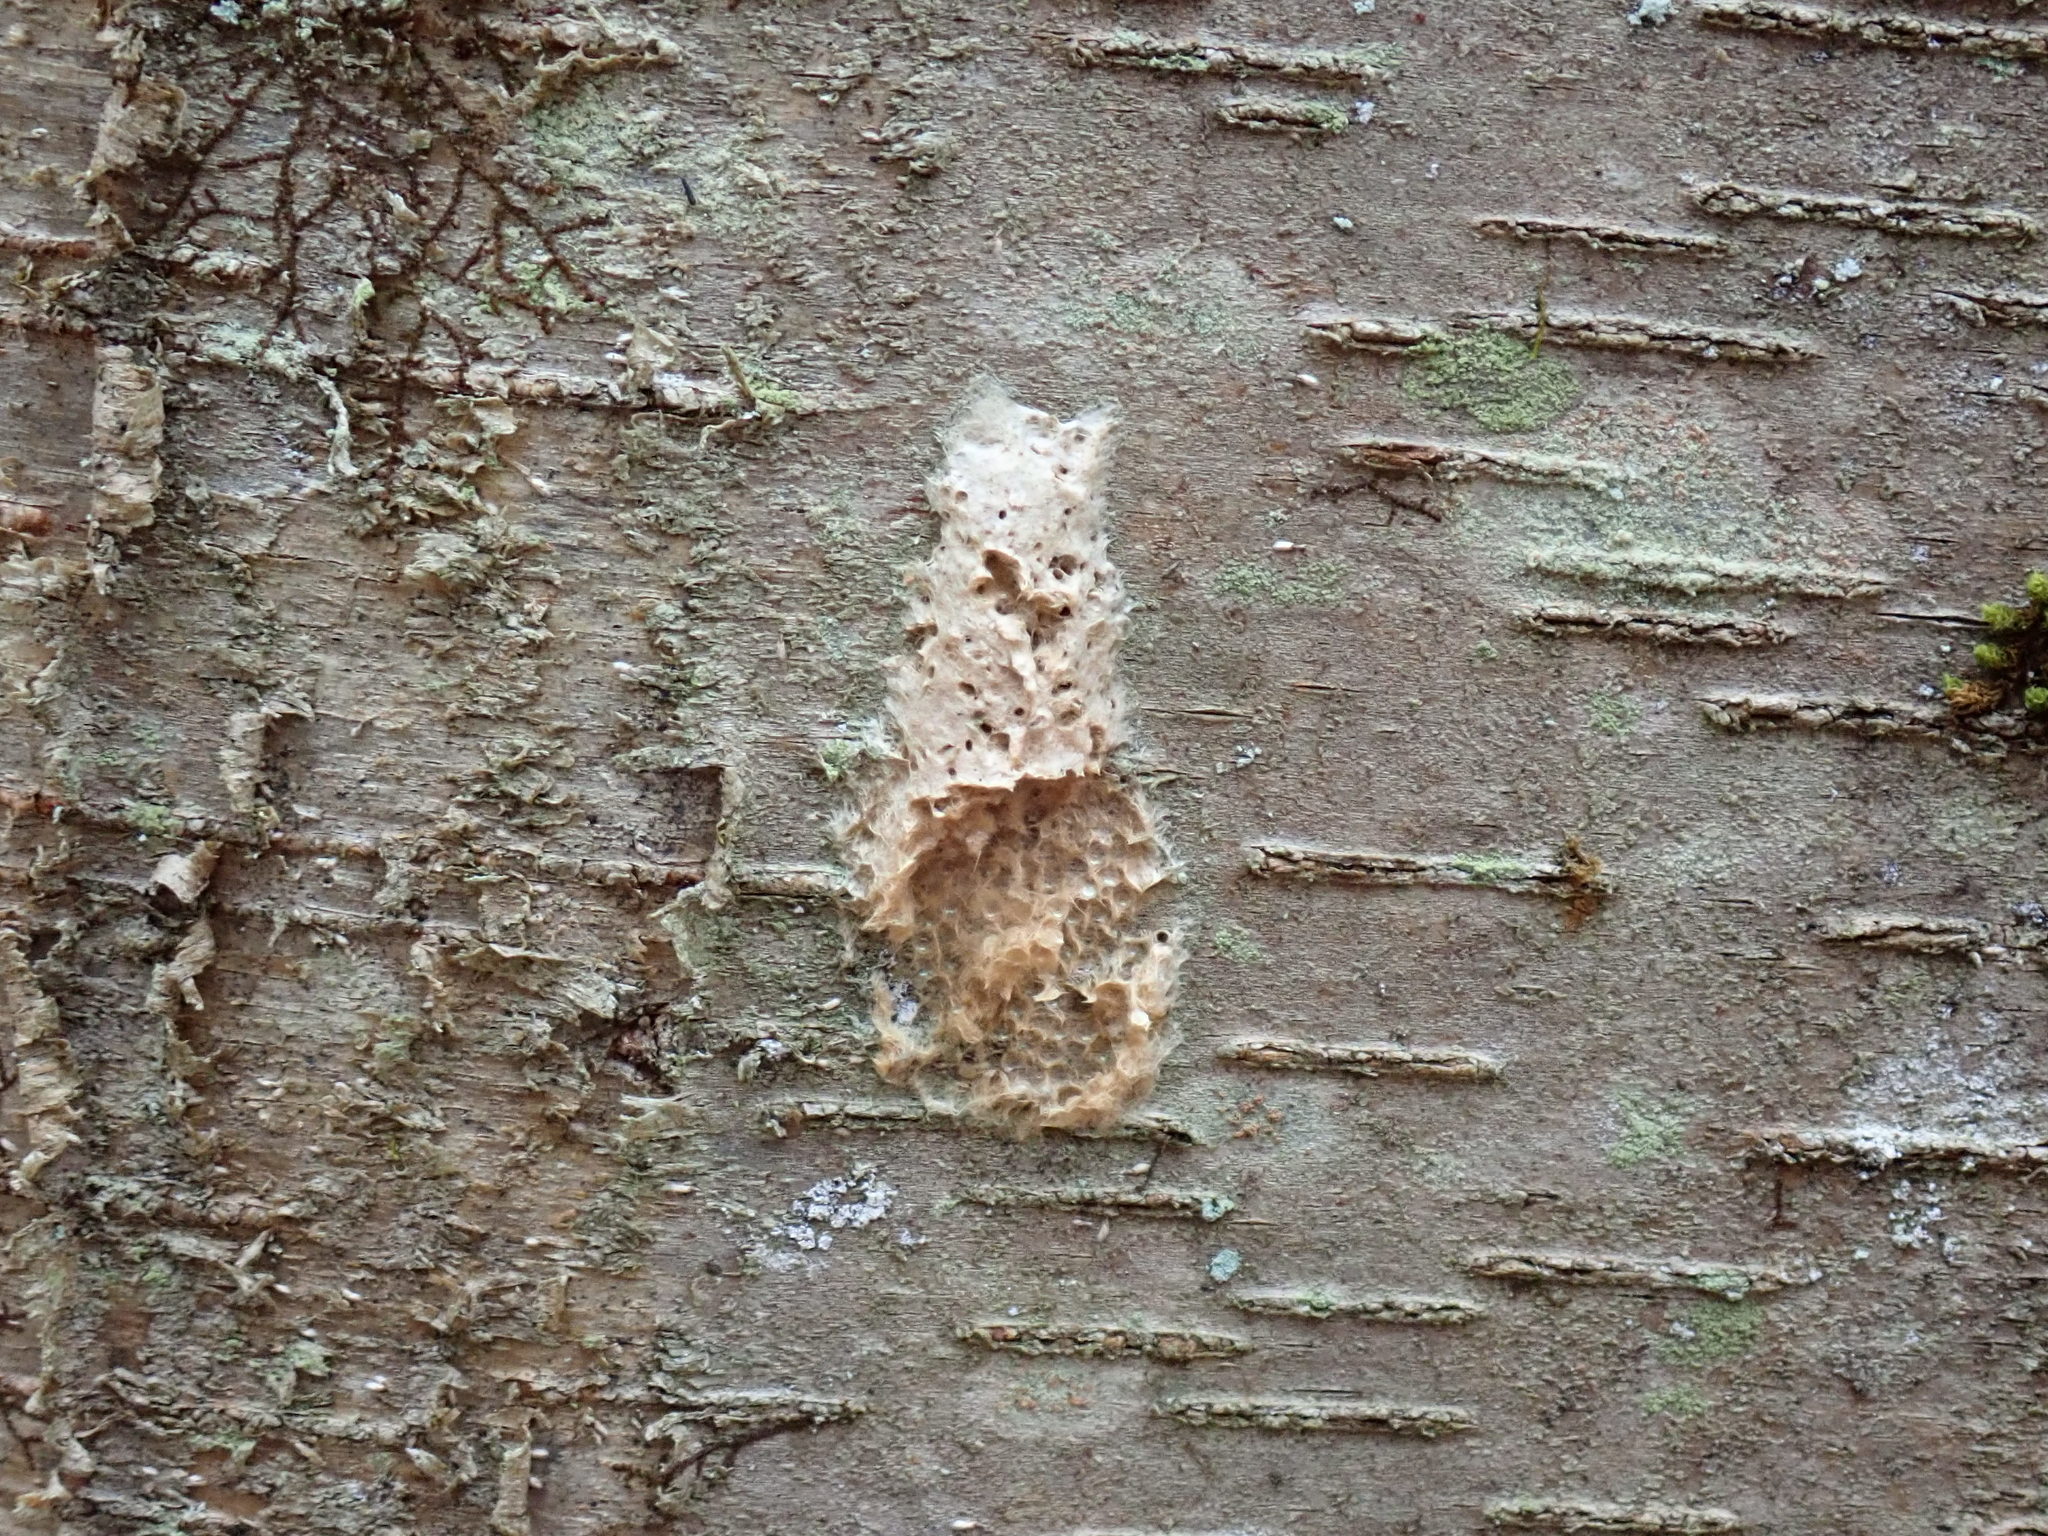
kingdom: Animalia
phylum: Arthropoda
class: Insecta
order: Lepidoptera
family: Erebidae
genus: Lymantria
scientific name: Lymantria dispar
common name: Gypsy moth
